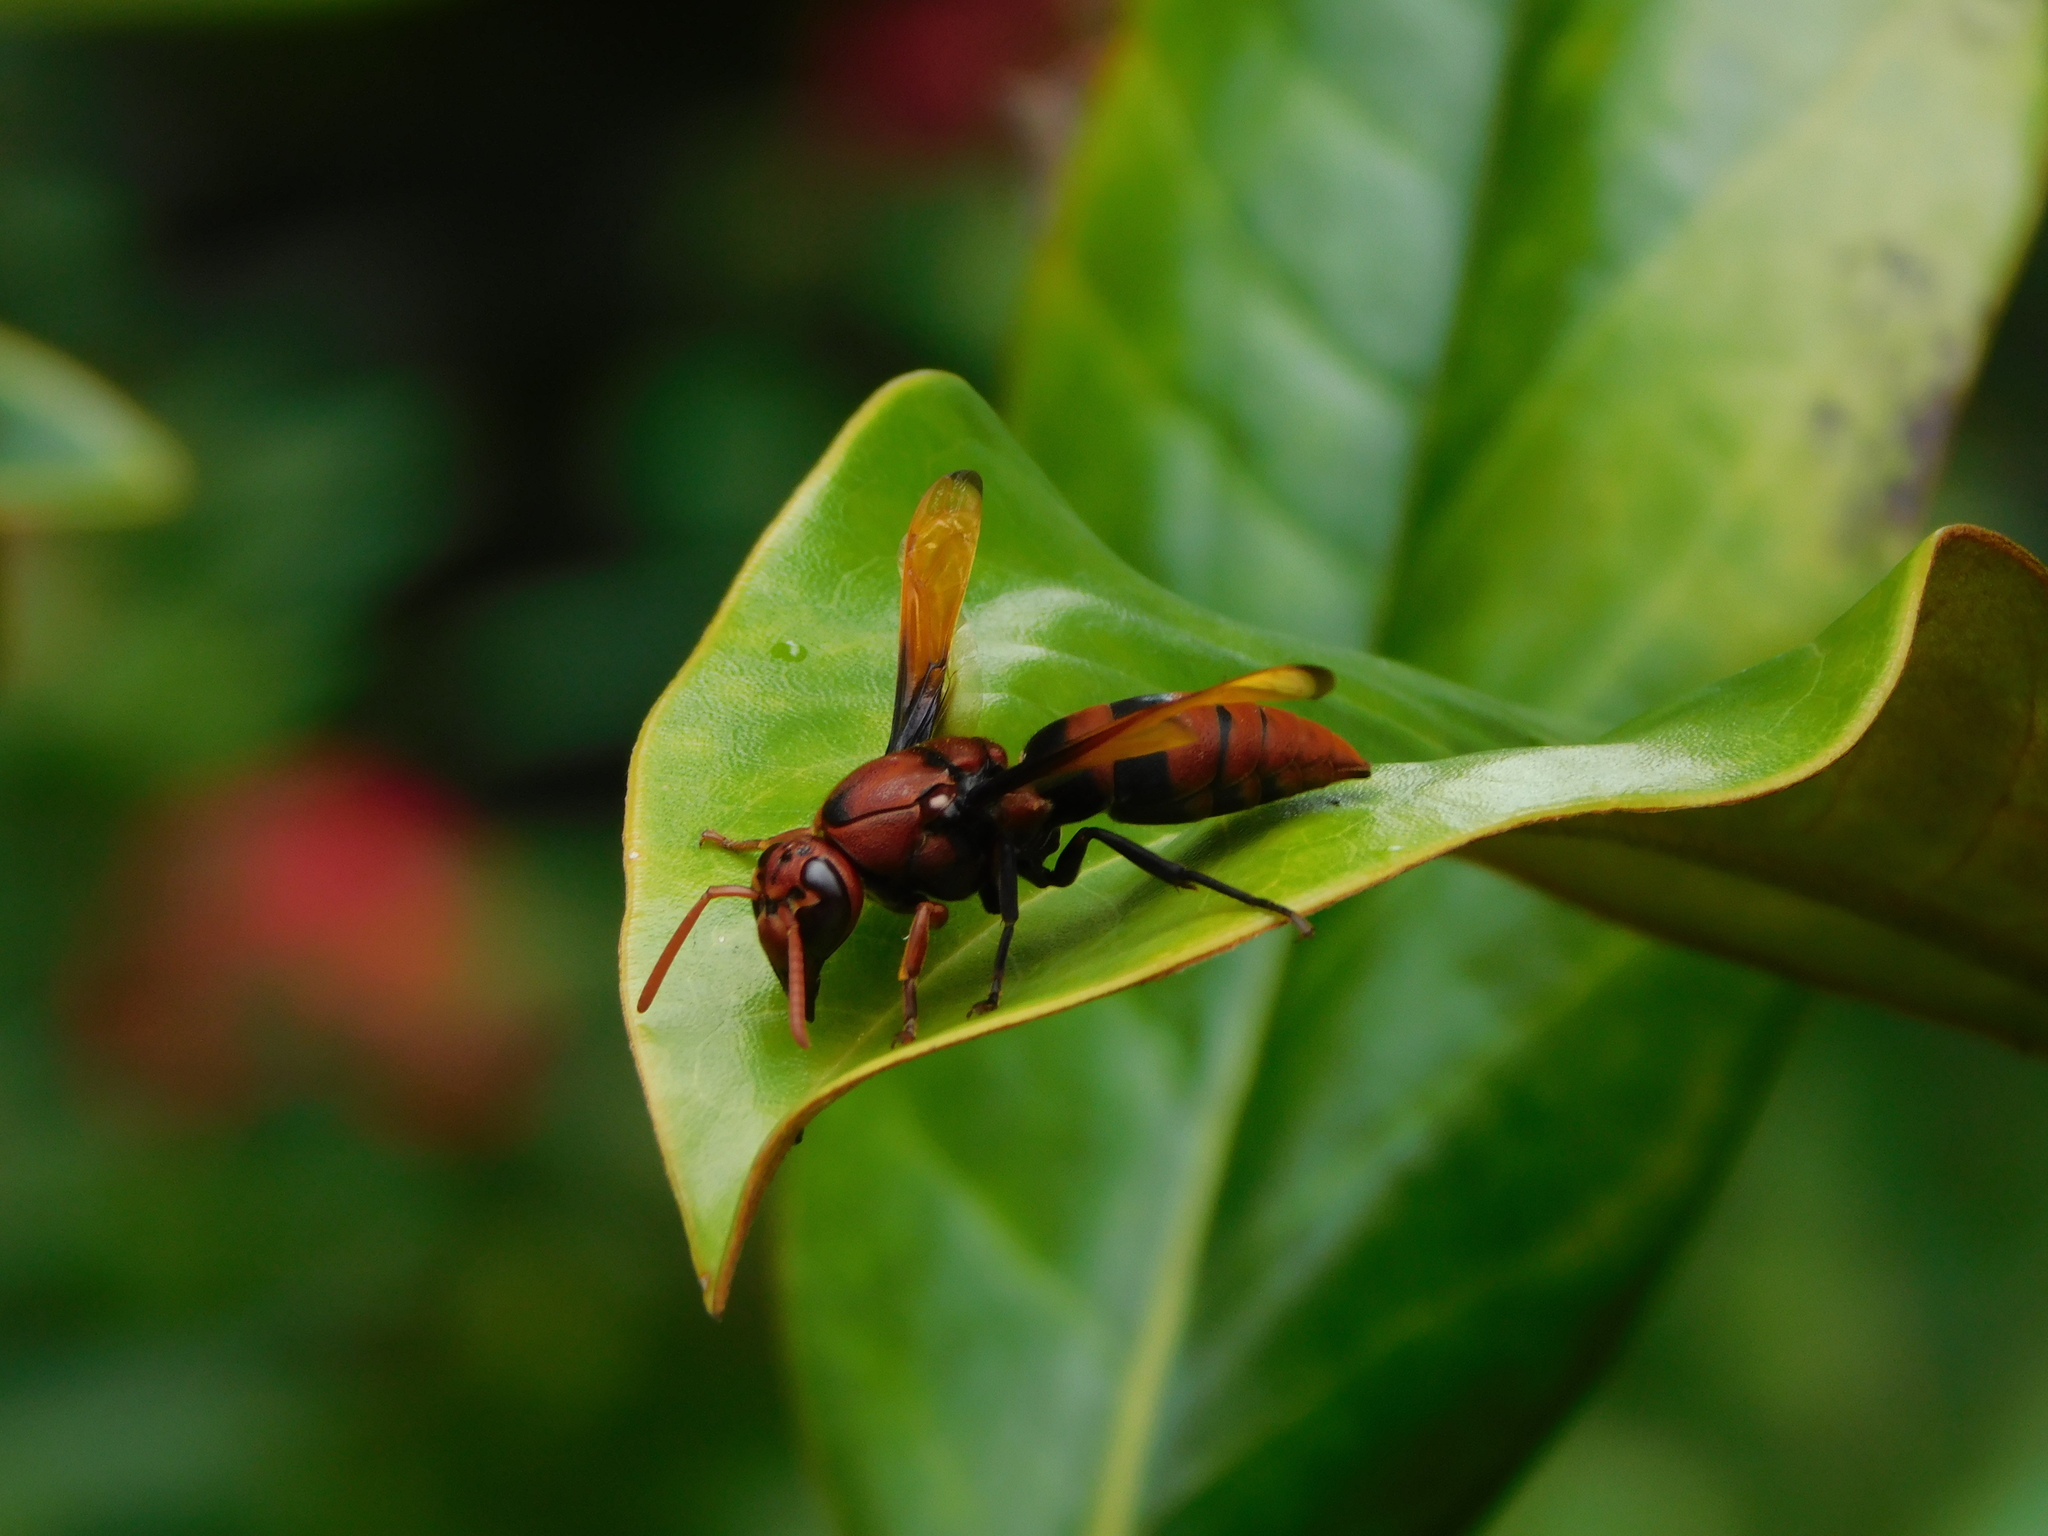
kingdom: Animalia
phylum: Arthropoda
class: Insecta
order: Hymenoptera
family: Eumenidae
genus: Rhynchium
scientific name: Rhynchium brunneum
